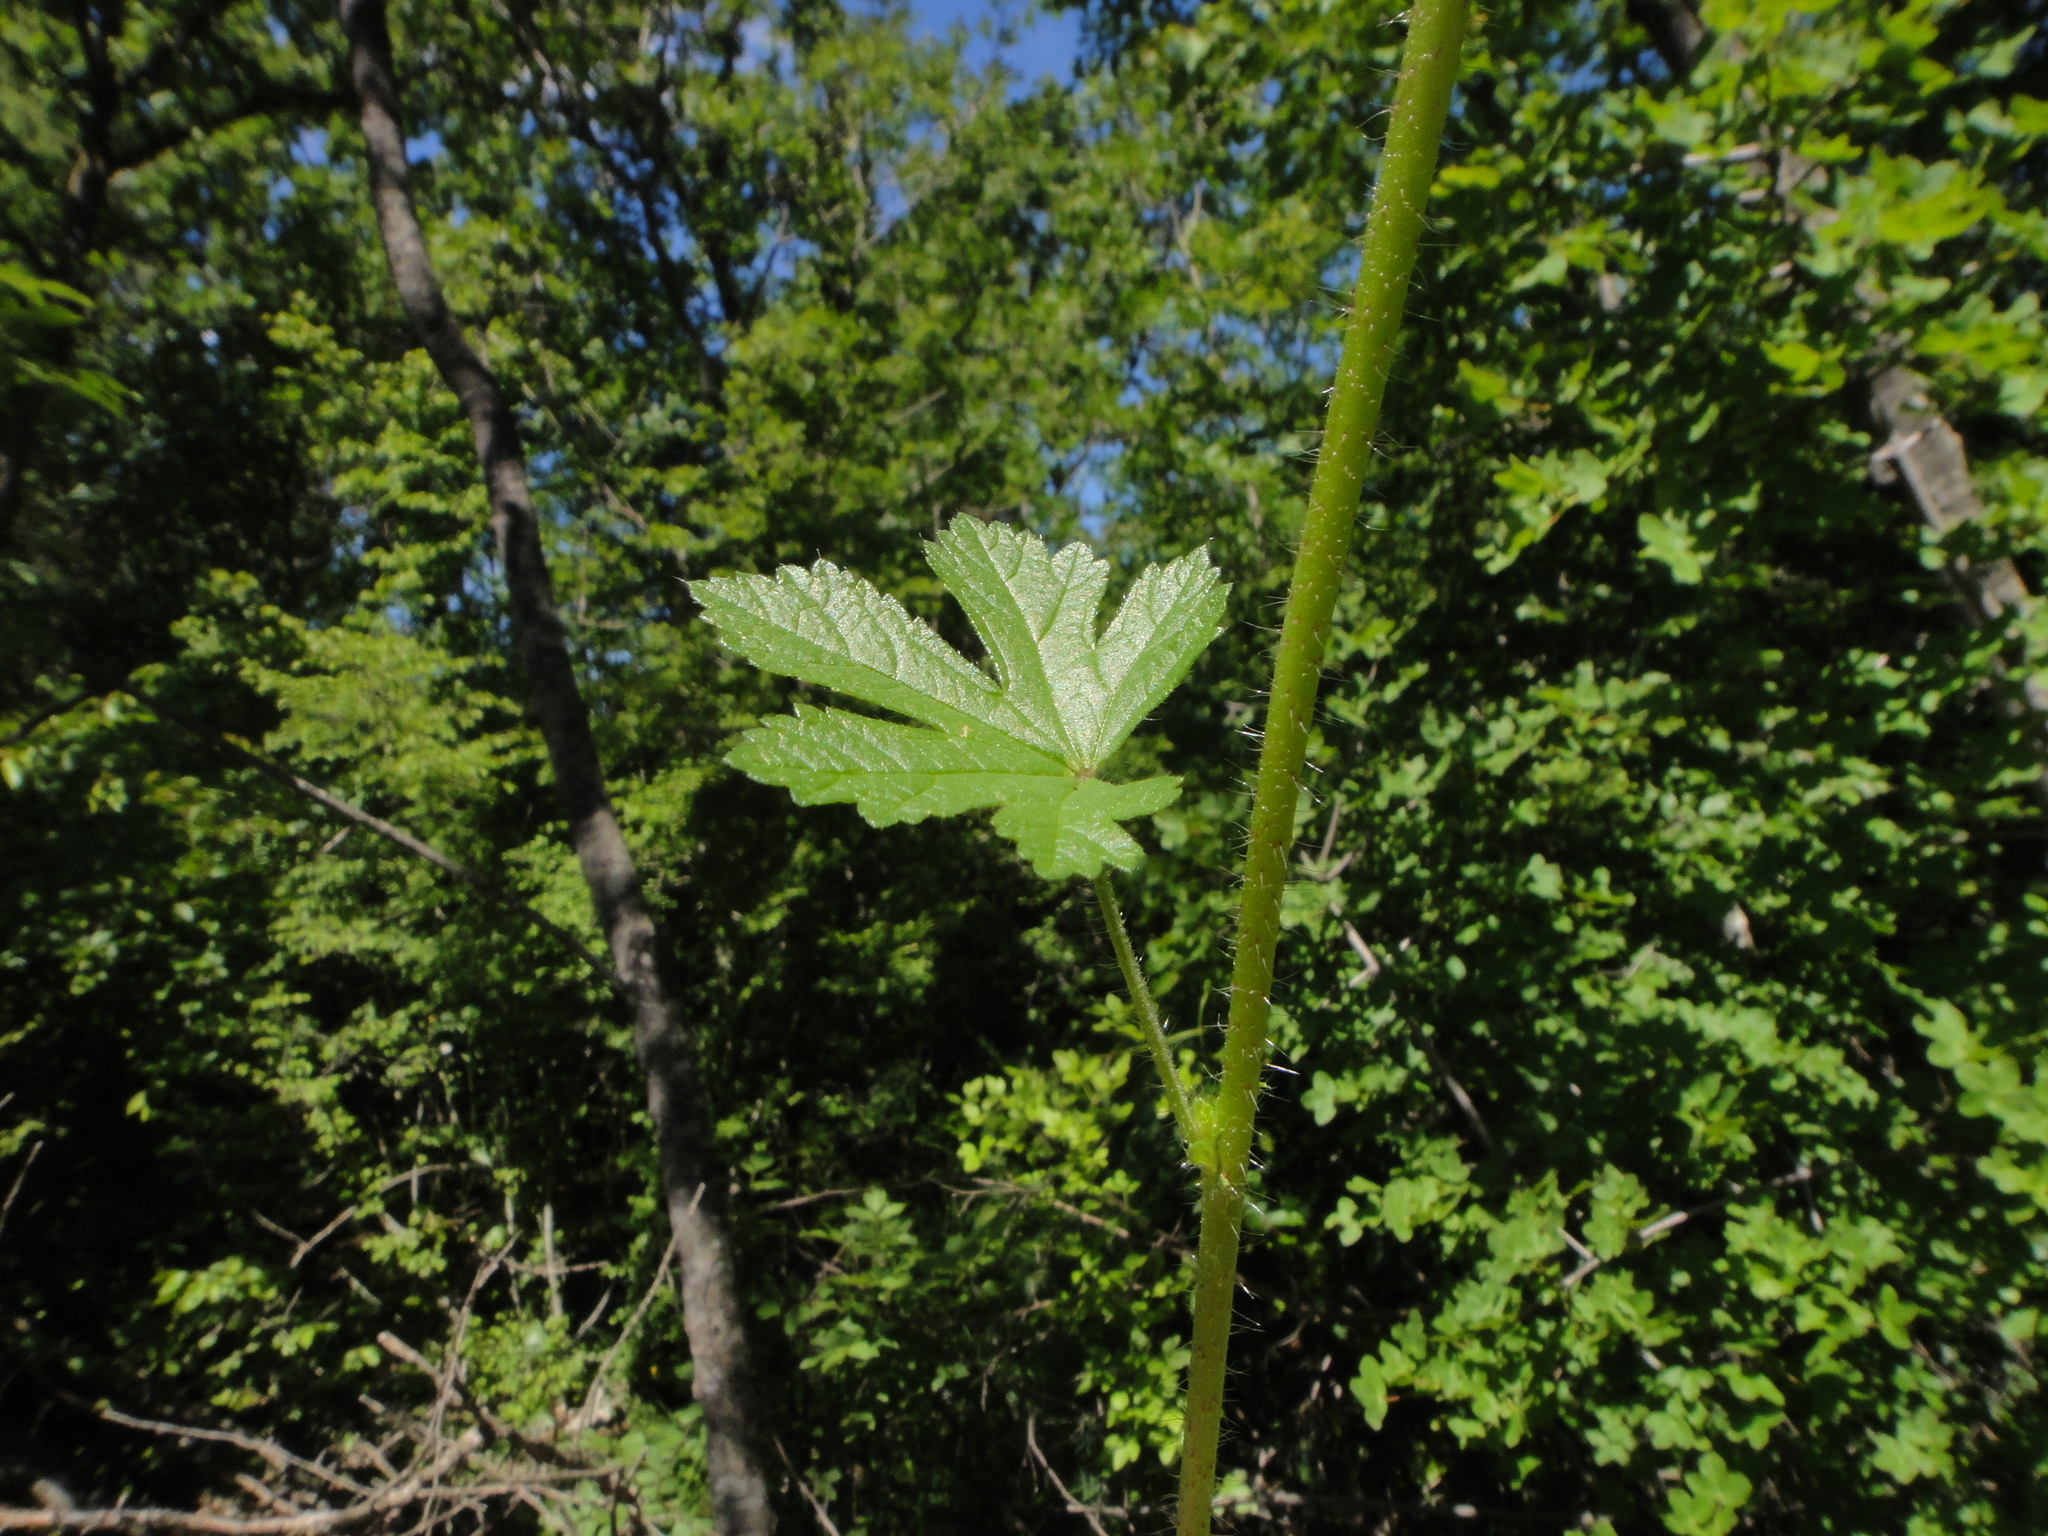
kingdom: Plantae
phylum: Tracheophyta
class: Magnoliopsida
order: Malvales
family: Malvaceae
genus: Althaea
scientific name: Althaea hirsuta
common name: Rough marsh-mallow
